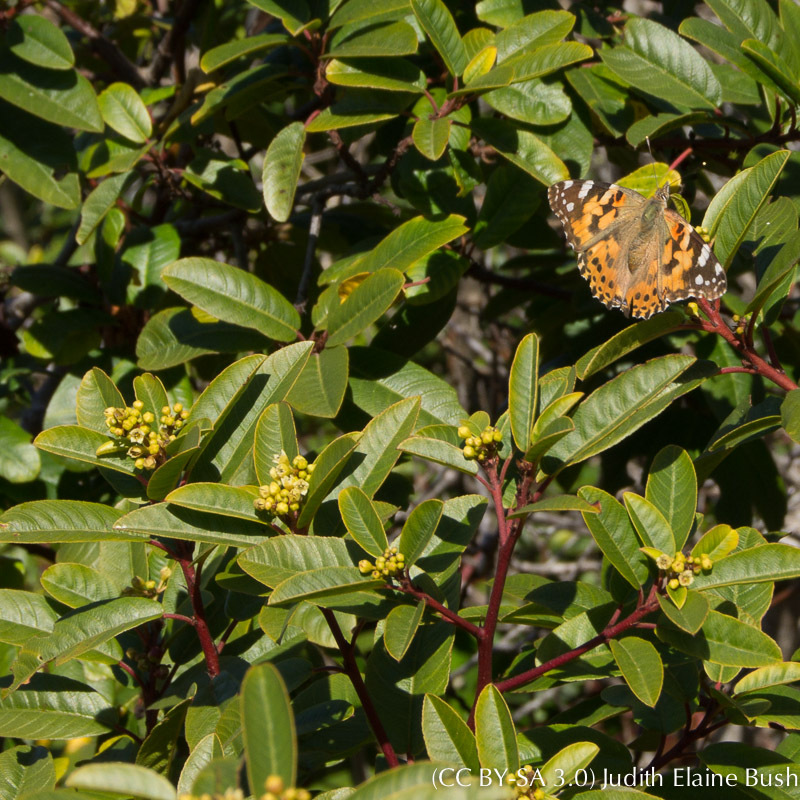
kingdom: Plantae
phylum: Tracheophyta
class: Magnoliopsida
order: Rosales
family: Rhamnaceae
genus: Frangula
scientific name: Frangula californica
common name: California buckthorn
